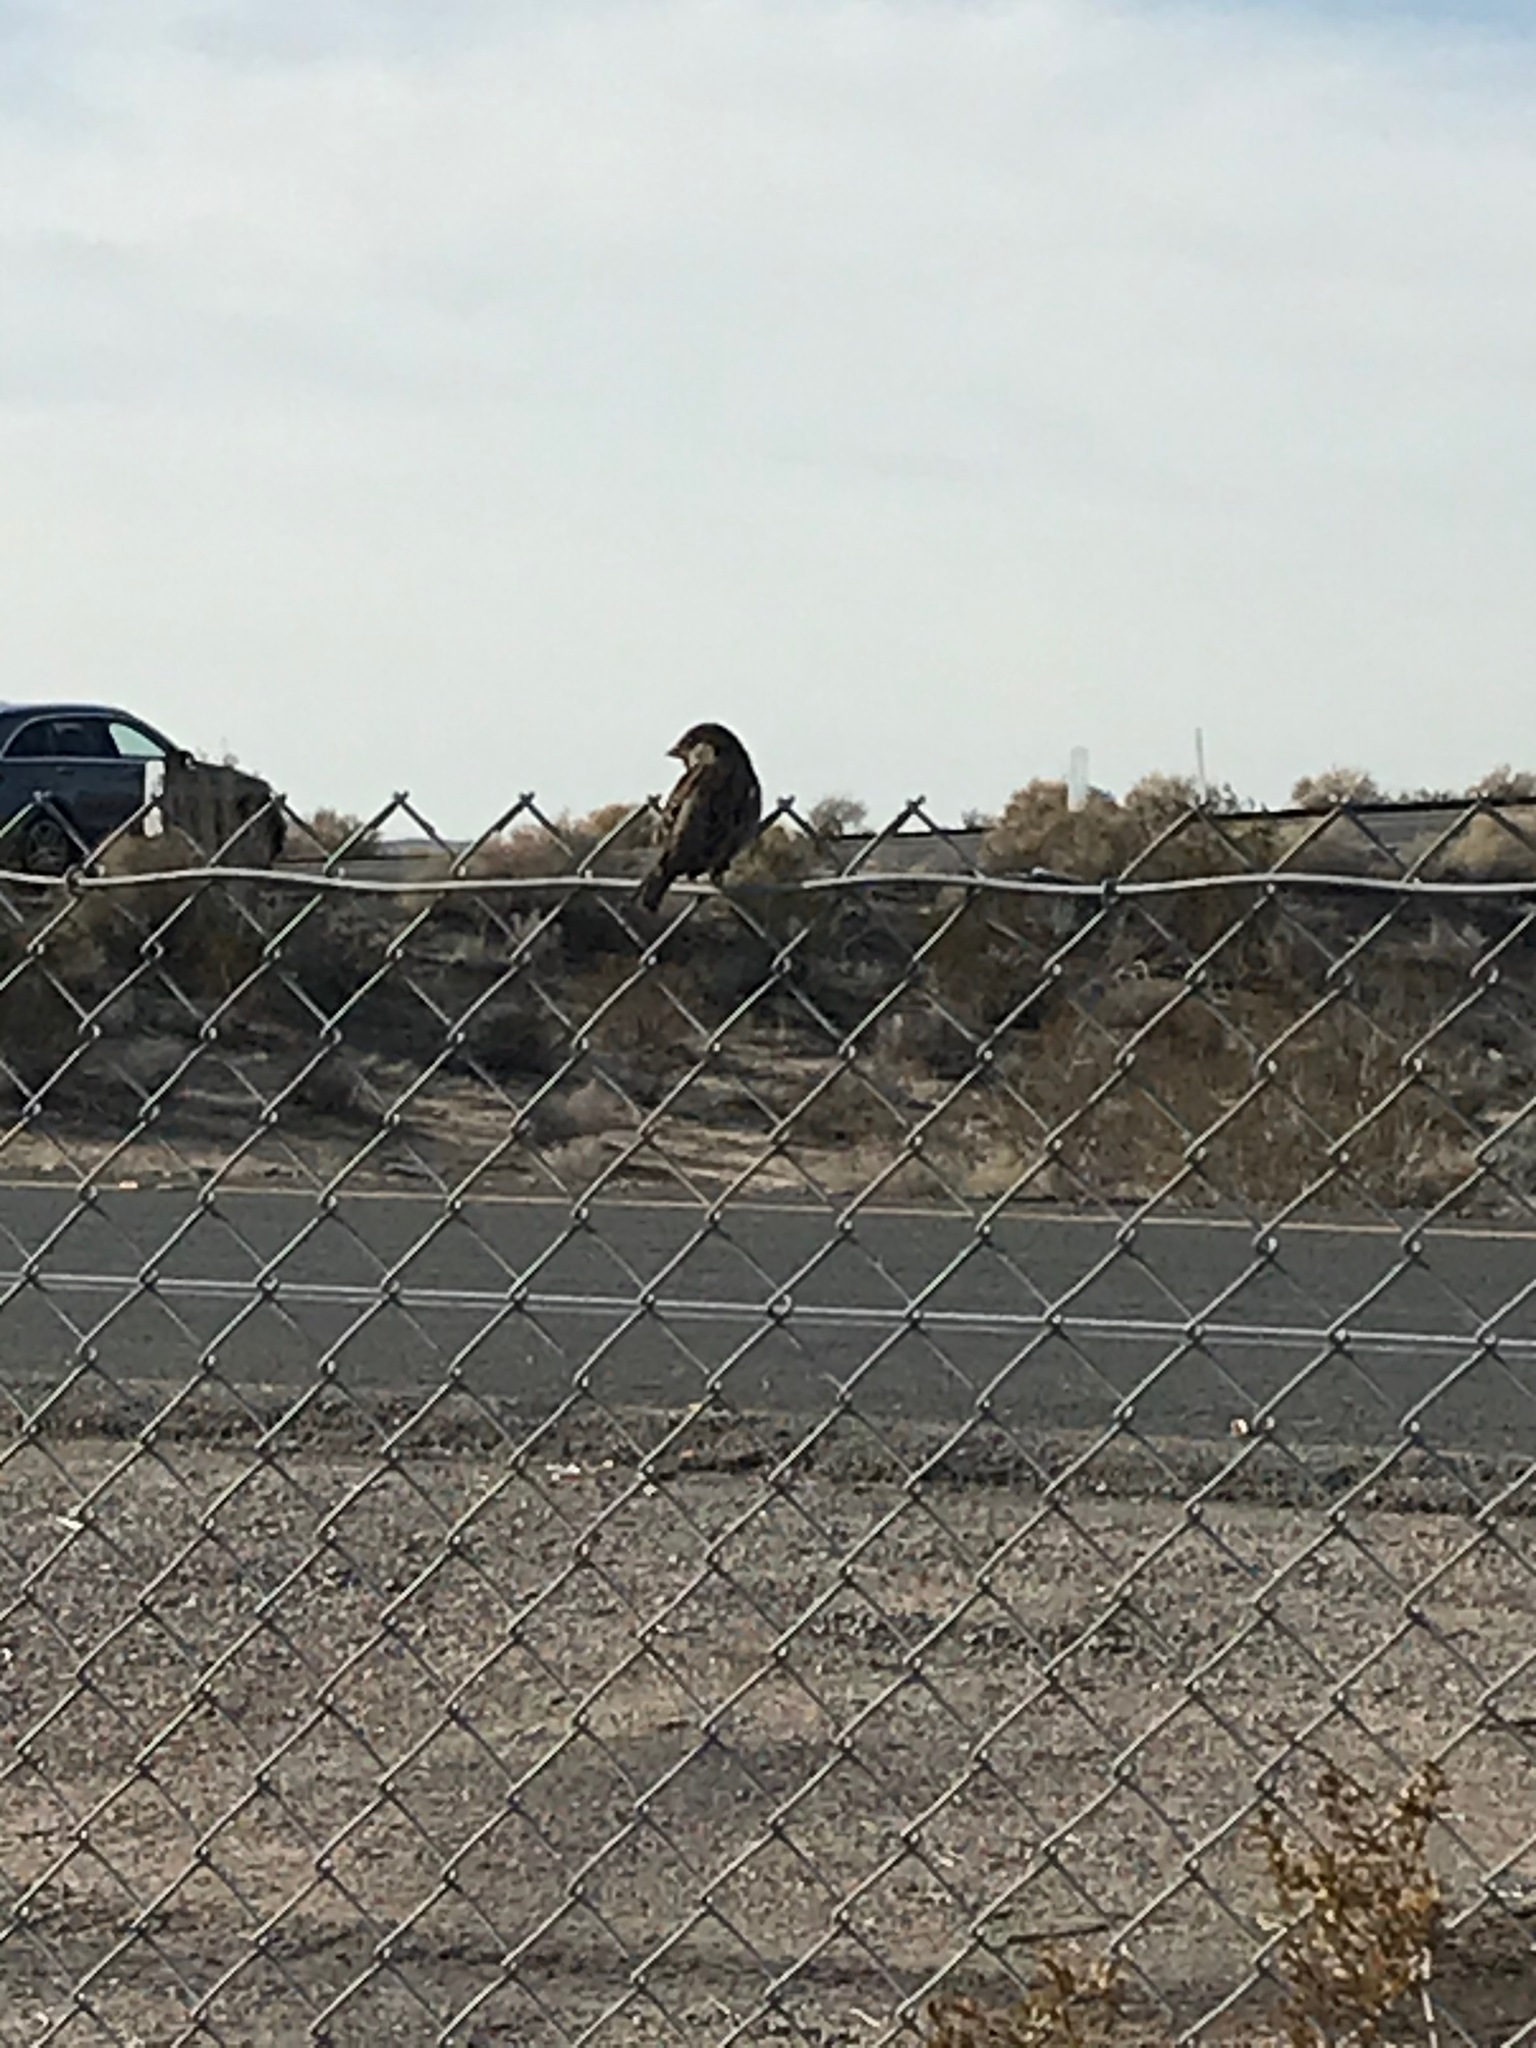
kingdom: Animalia
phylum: Chordata
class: Aves
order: Passeriformes
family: Passeridae
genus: Passer
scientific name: Passer domesticus
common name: House sparrow
